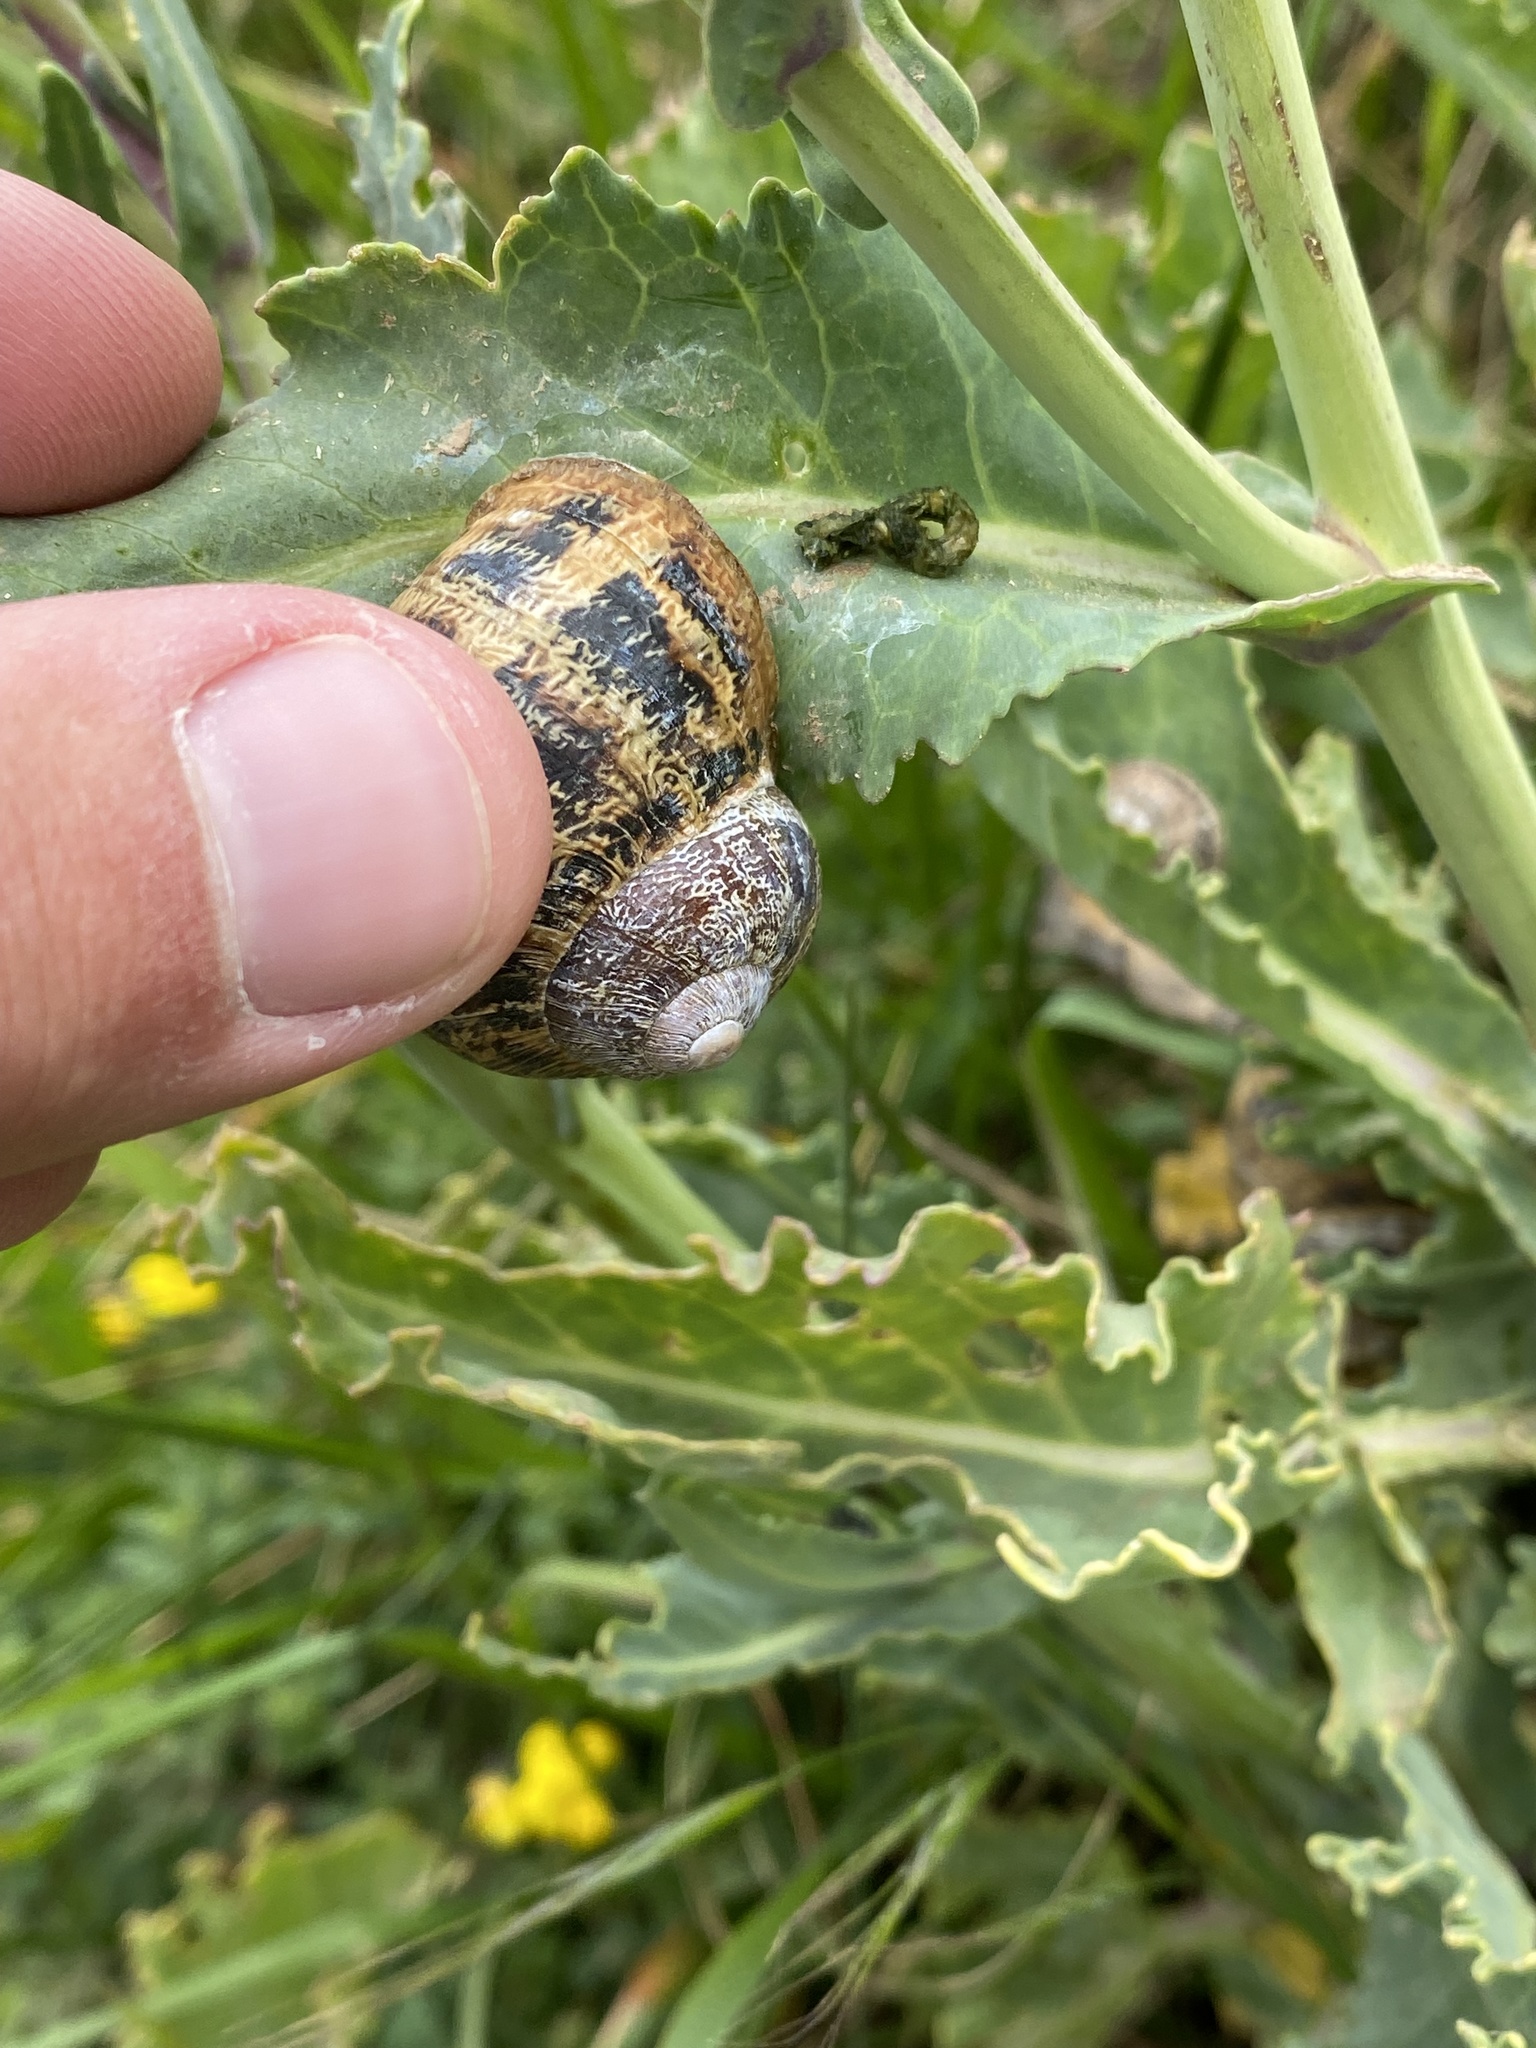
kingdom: Animalia
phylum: Mollusca
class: Gastropoda
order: Stylommatophora
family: Helicidae
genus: Cornu
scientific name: Cornu aspersum
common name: Brown garden snail
